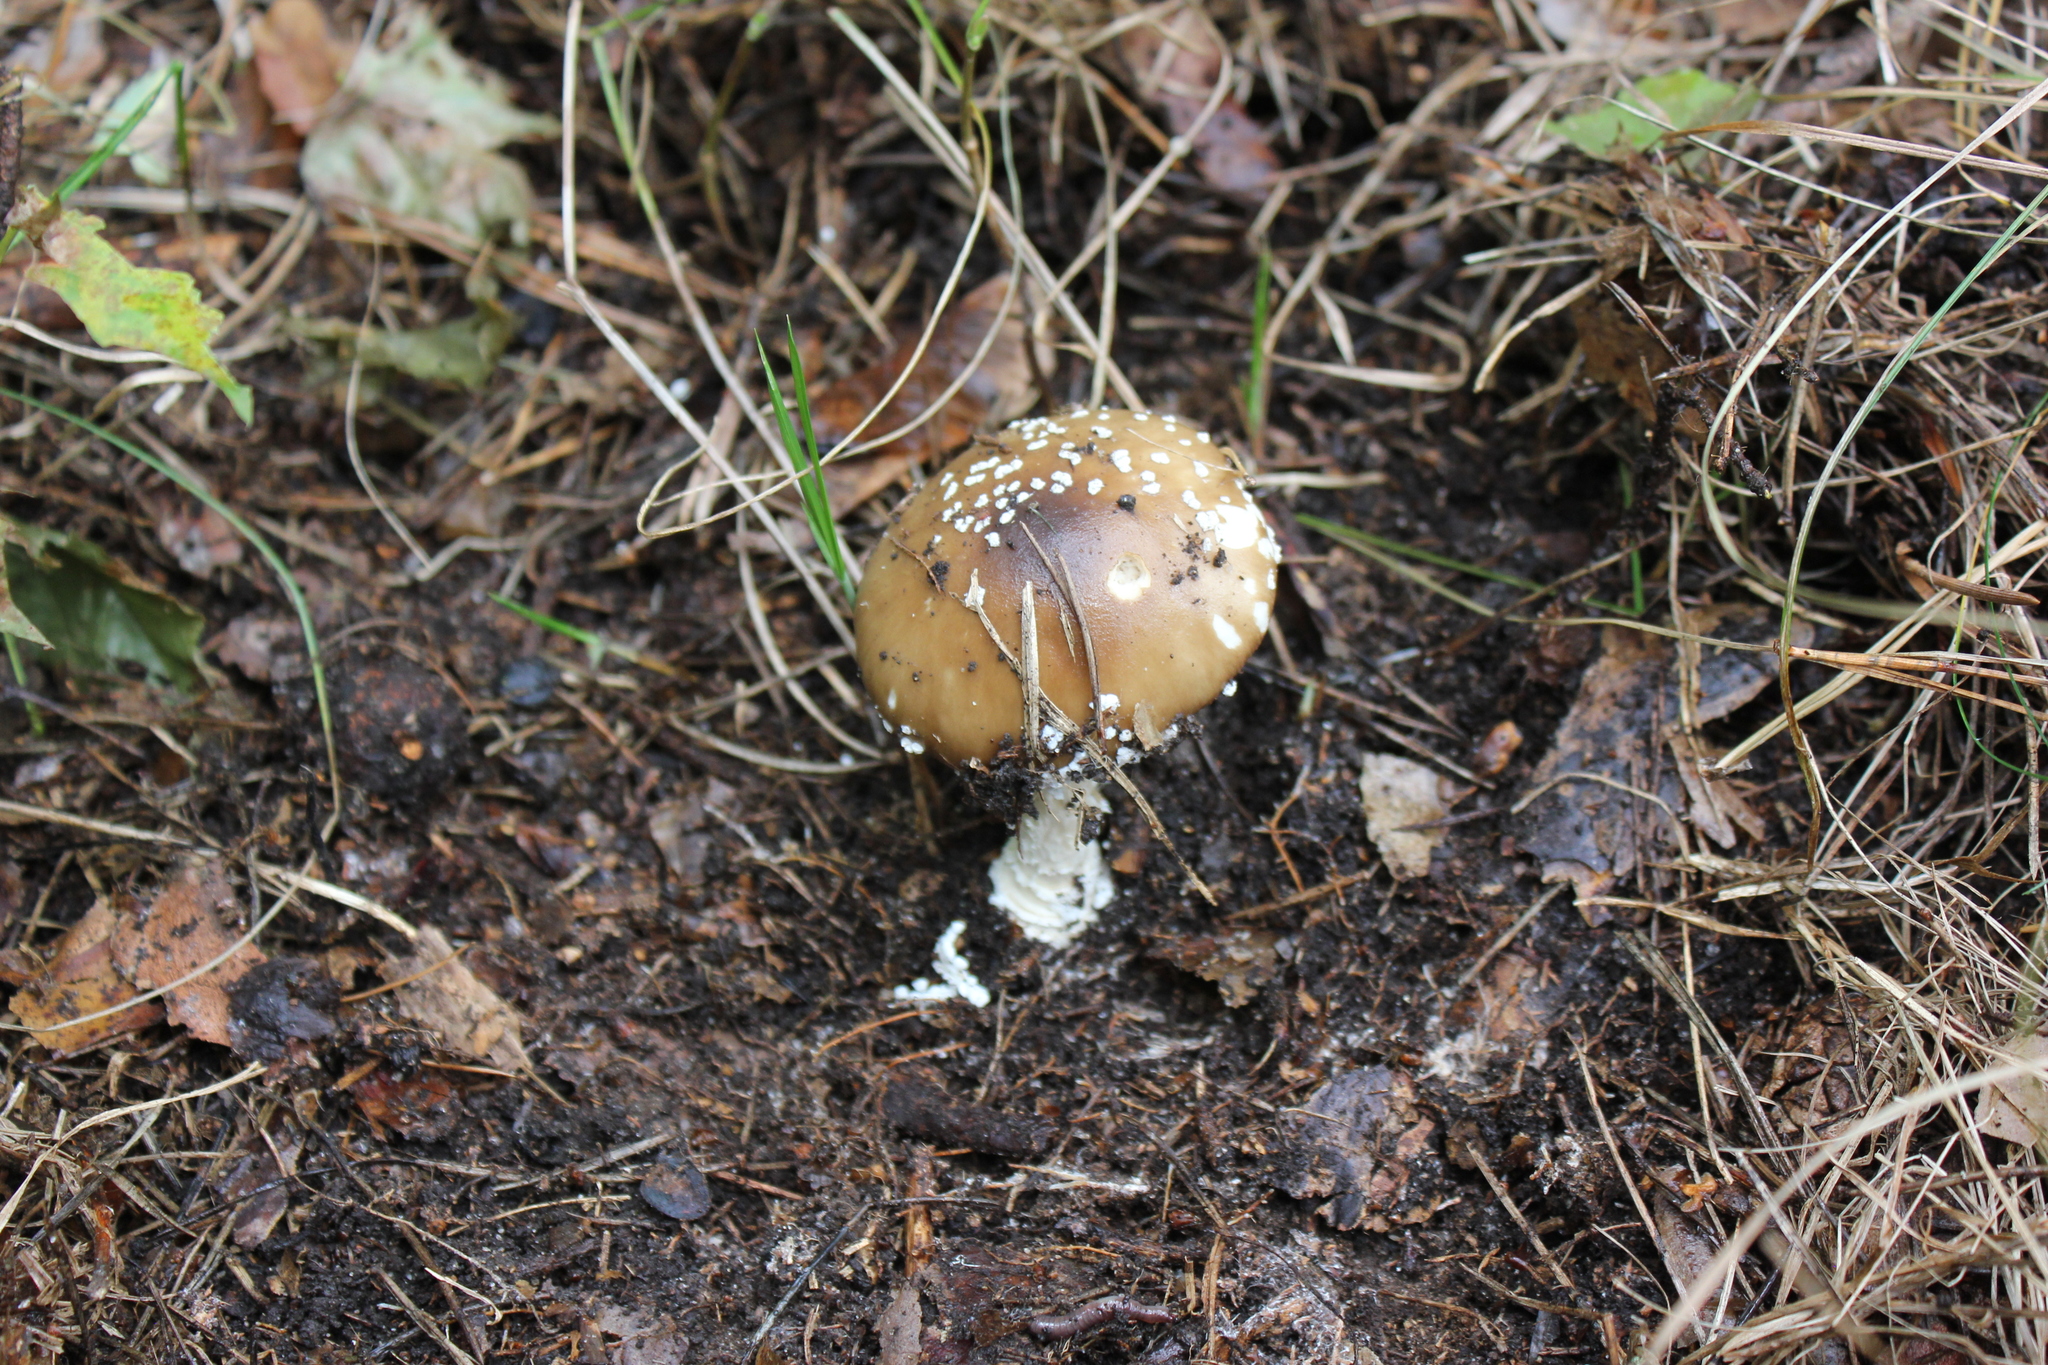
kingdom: Fungi
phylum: Basidiomycota
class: Agaricomycetes
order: Agaricales
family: Amanitaceae
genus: Amanita
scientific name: Amanita pantherina
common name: Panthercap
